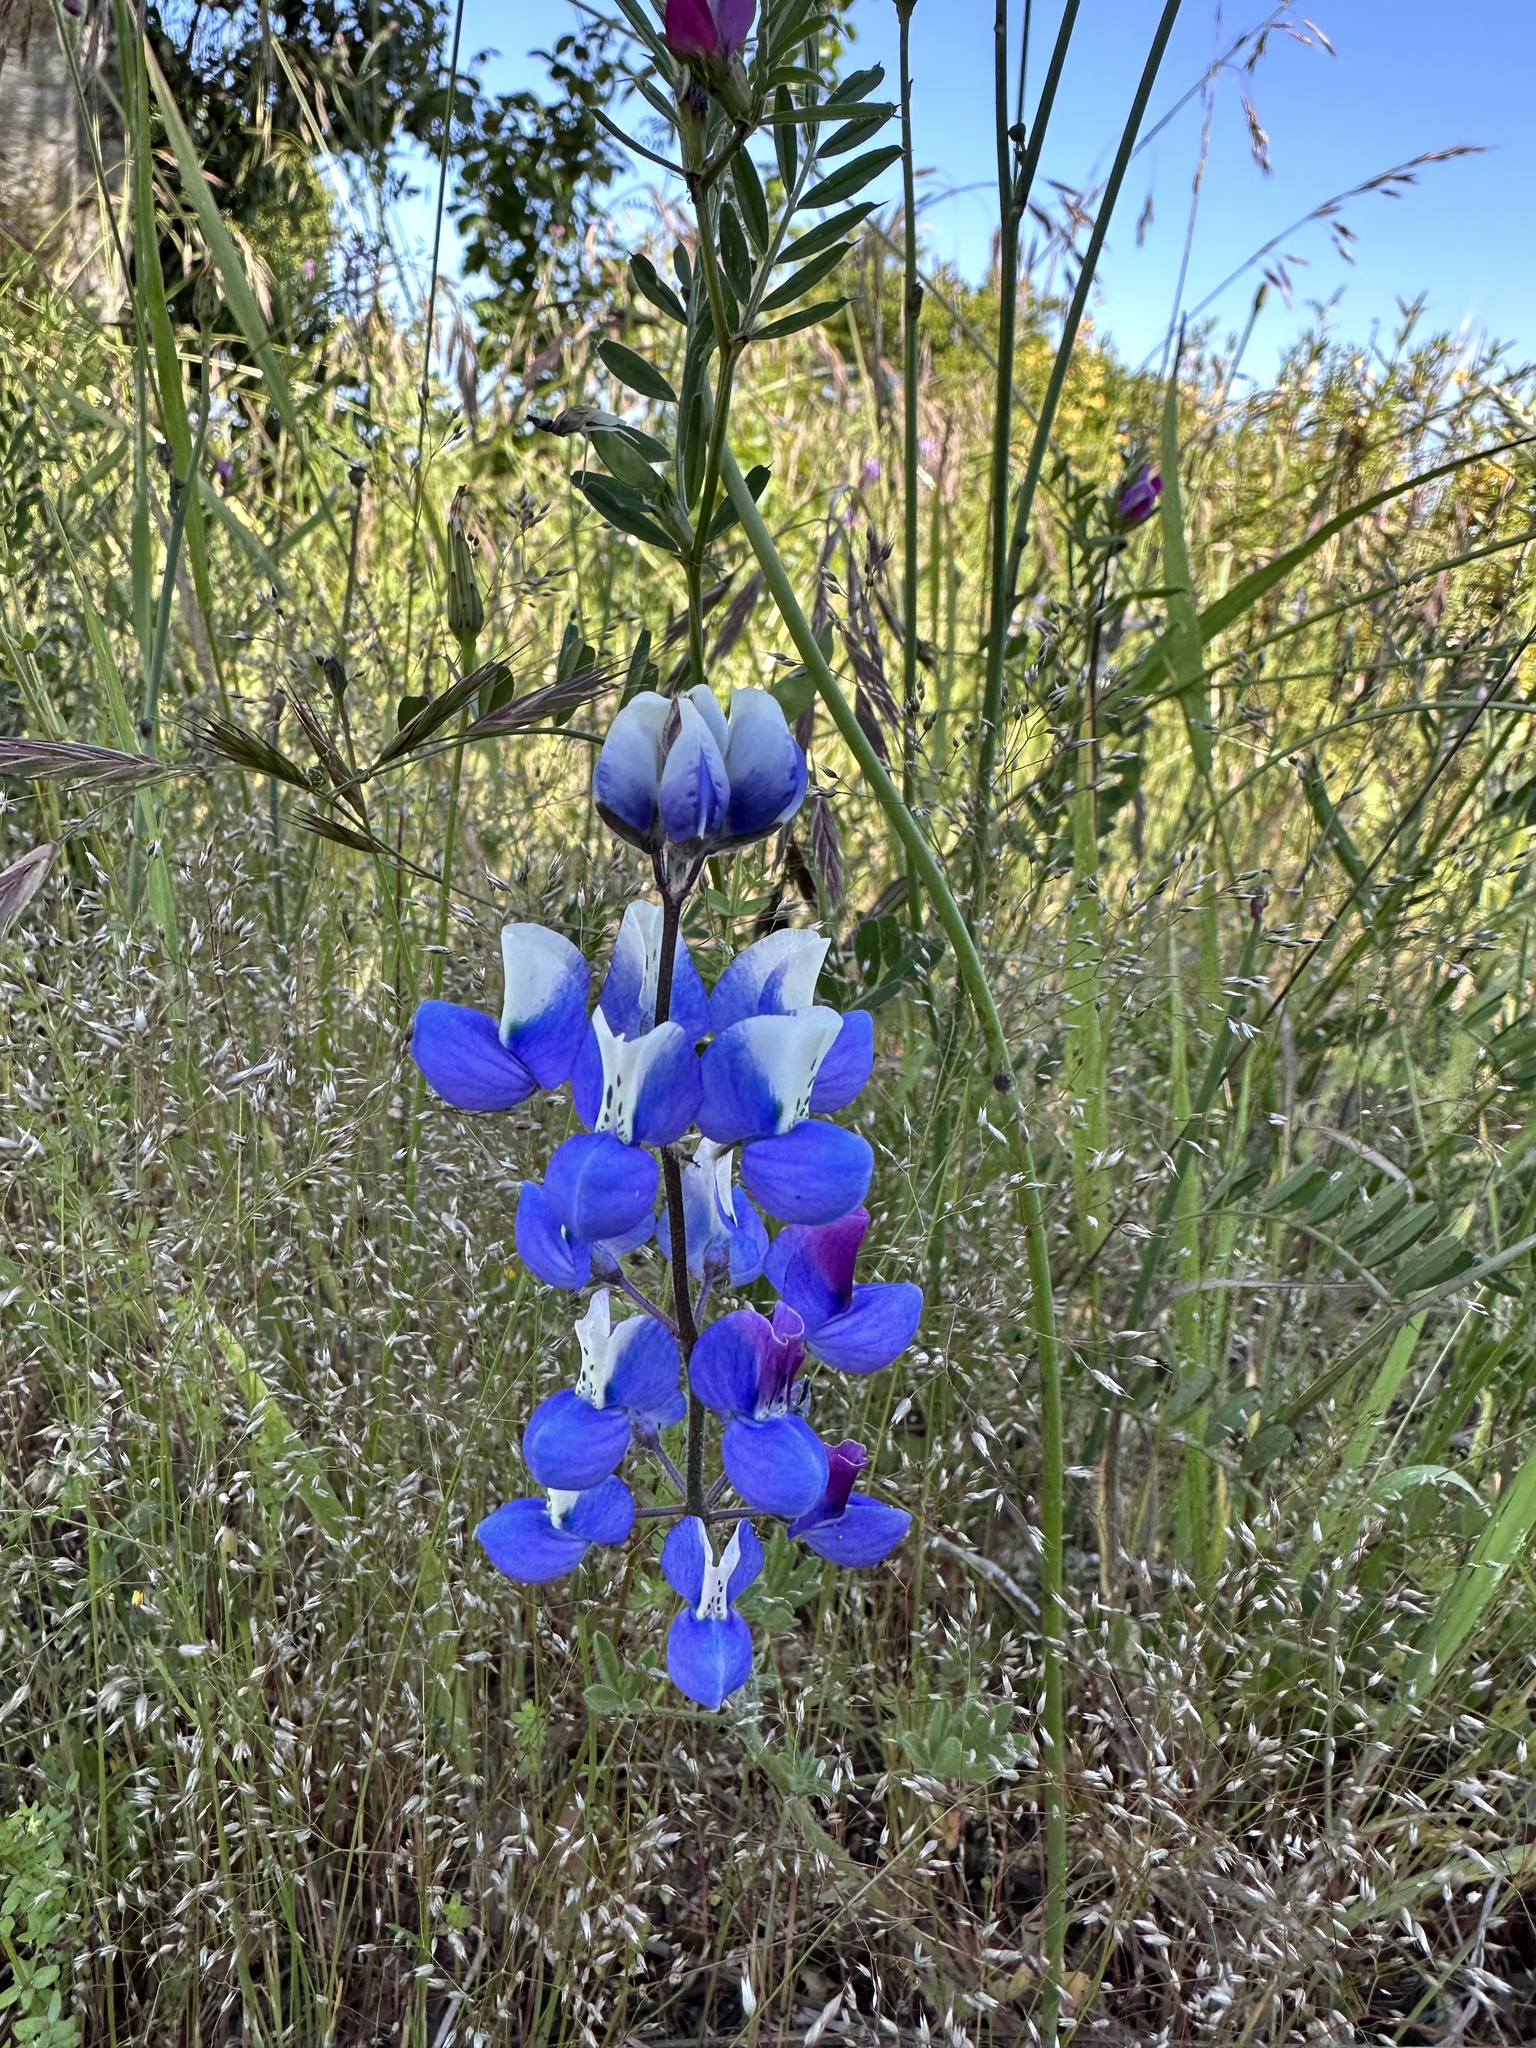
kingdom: Plantae
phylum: Tracheophyta
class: Magnoliopsida
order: Fabales
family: Fabaceae
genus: Lupinus
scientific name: Lupinus nanus
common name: Orean blue lupin
